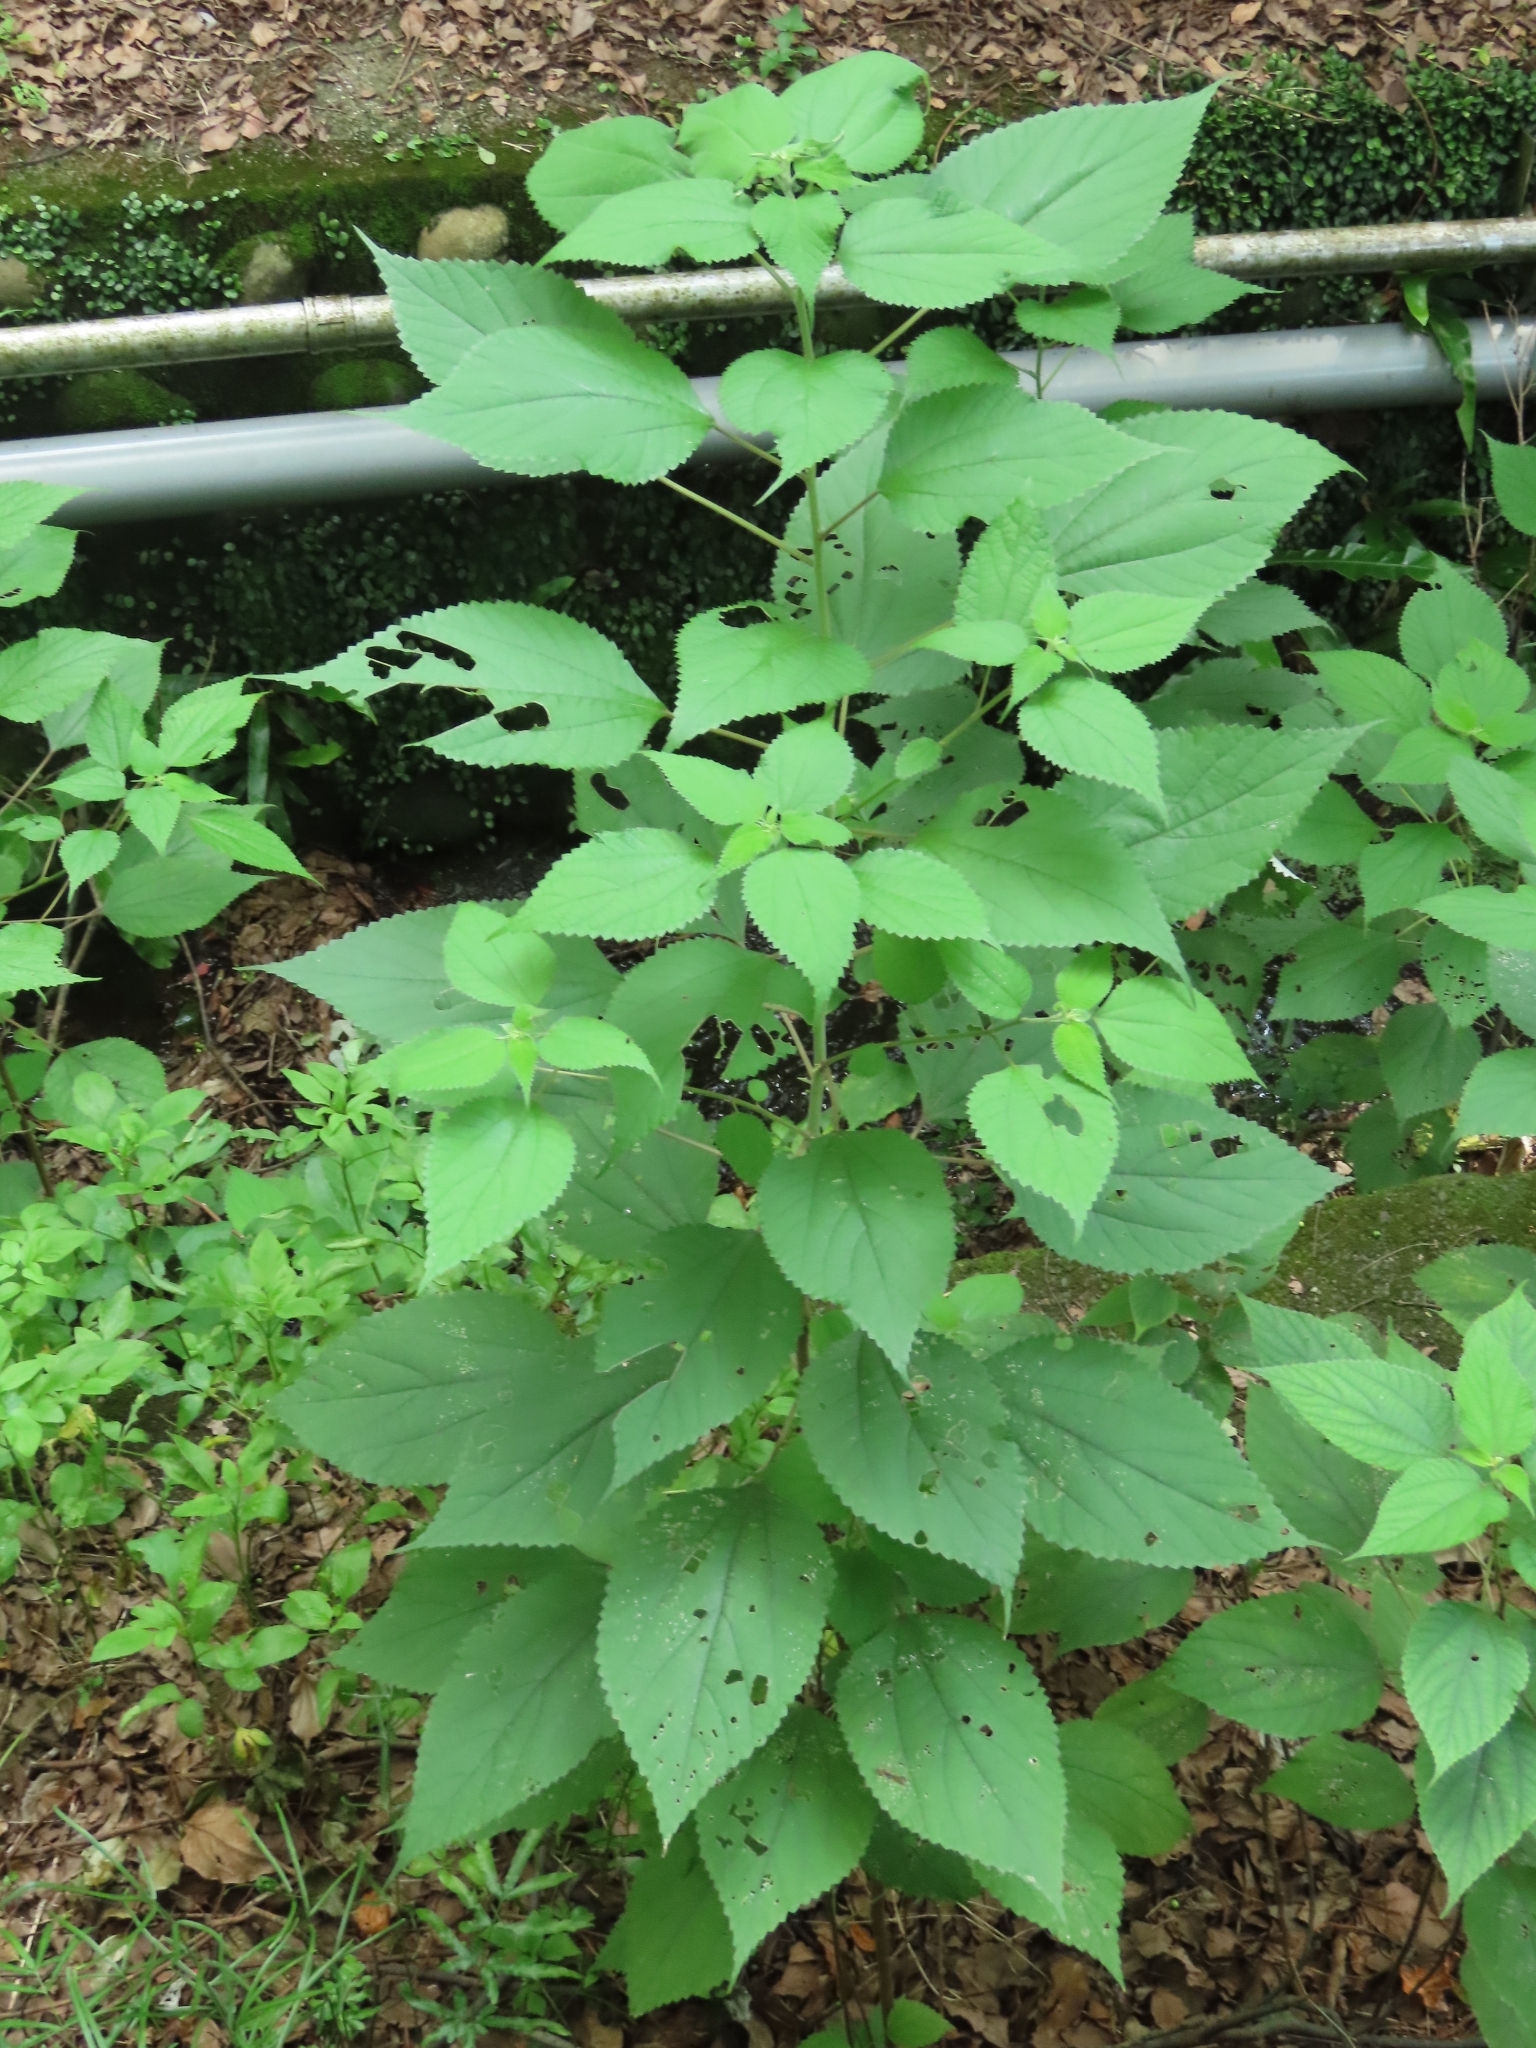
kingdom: Plantae
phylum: Tracheophyta
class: Magnoliopsida
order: Rosales
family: Urticaceae
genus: Boehmeria
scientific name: Boehmeria nivea
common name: Ramie chinese grass
